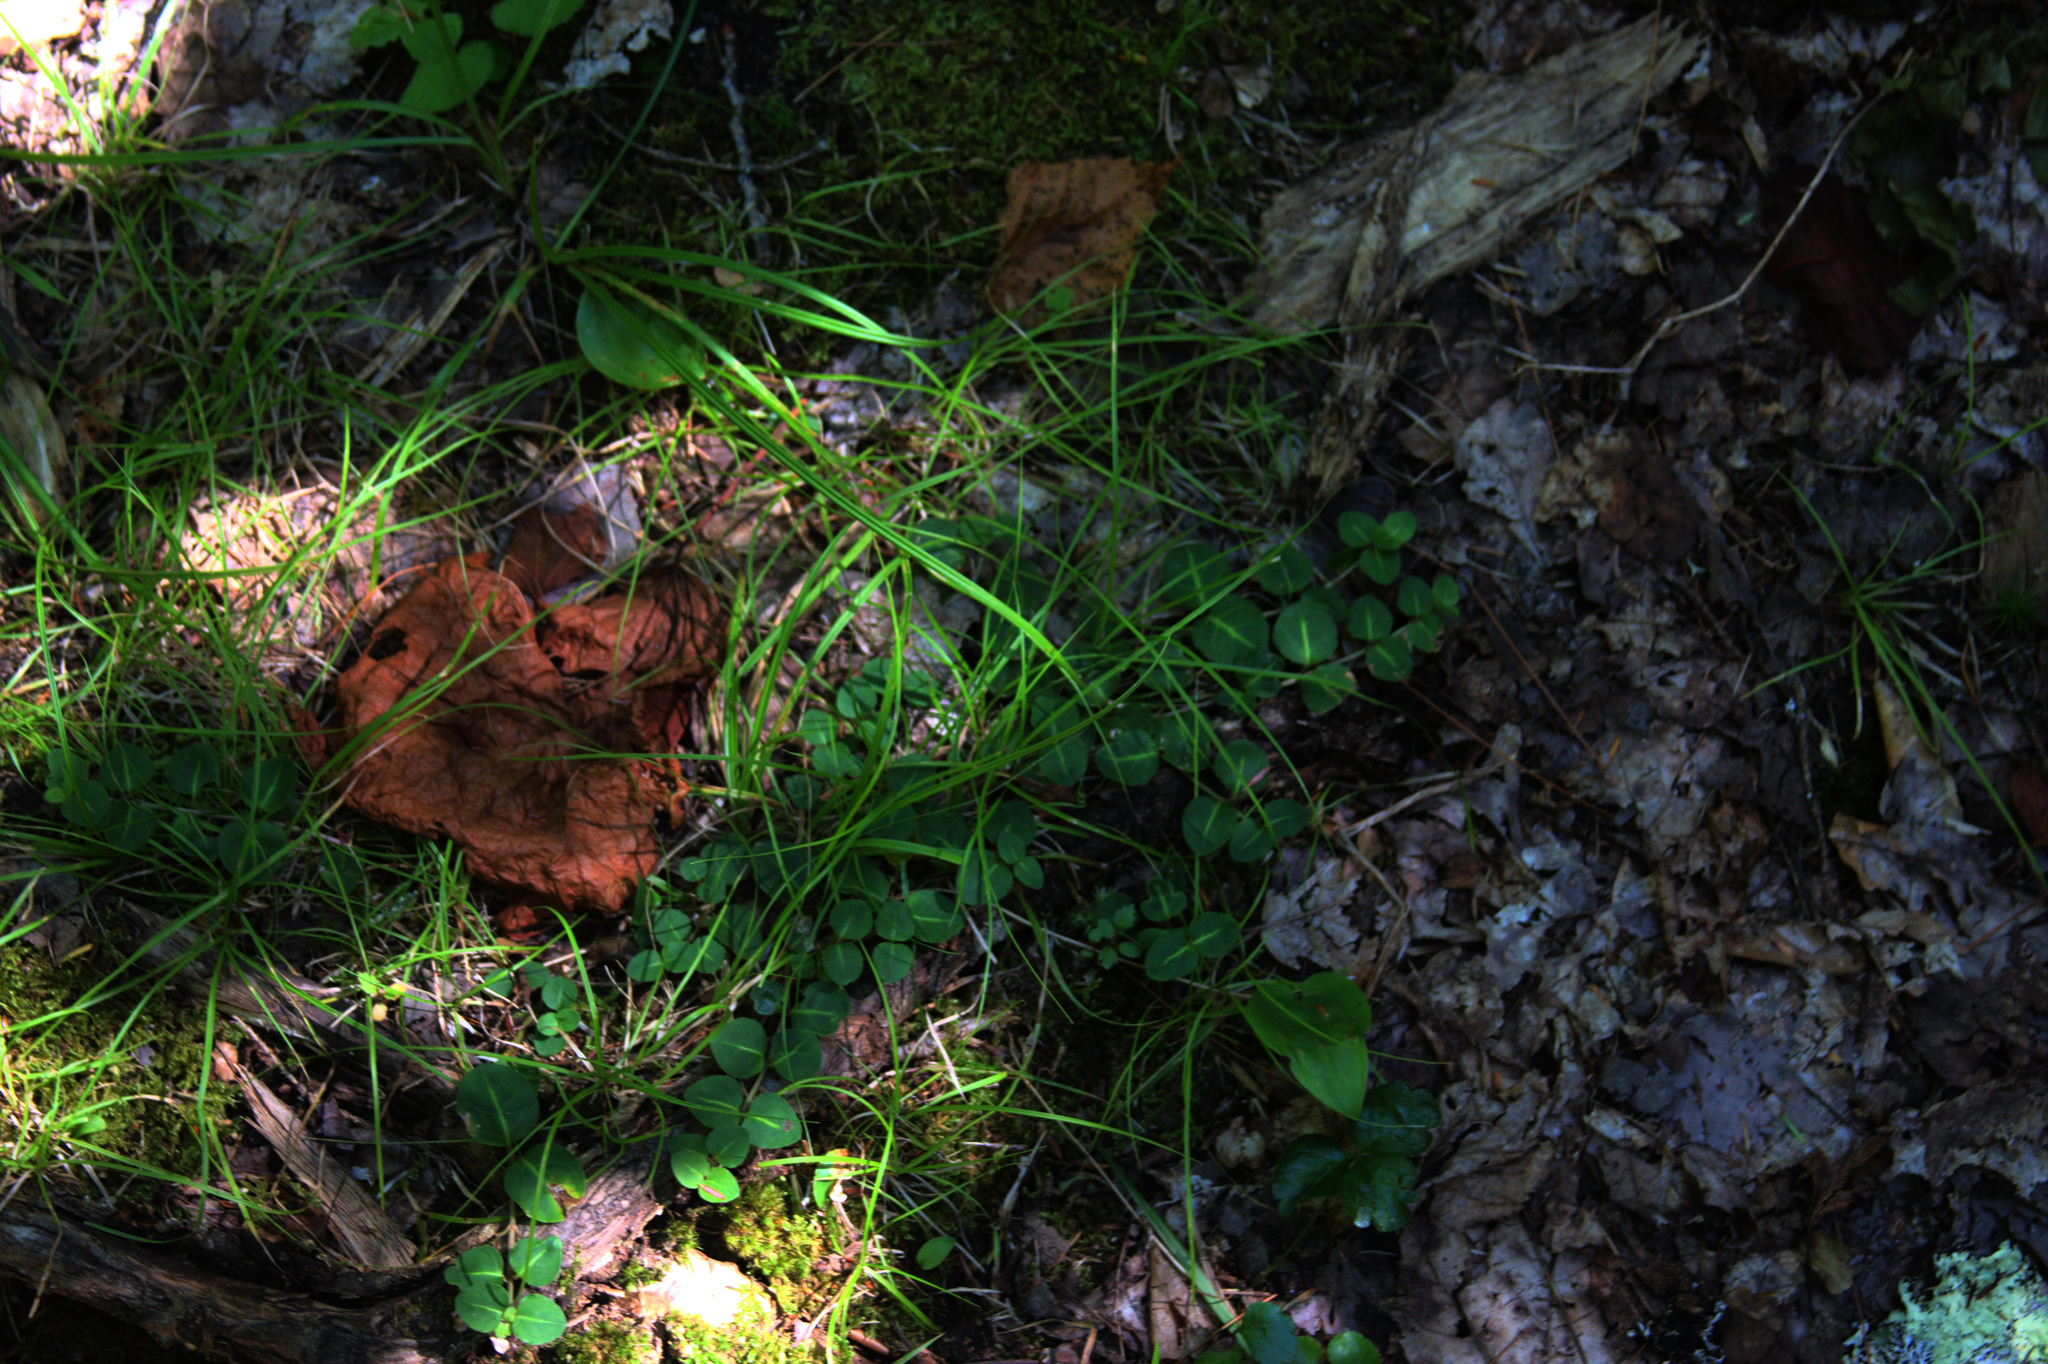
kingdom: Plantae
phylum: Tracheophyta
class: Magnoliopsida
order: Gentianales
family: Rubiaceae
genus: Mitchella
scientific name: Mitchella repens
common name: Partridge-berry
